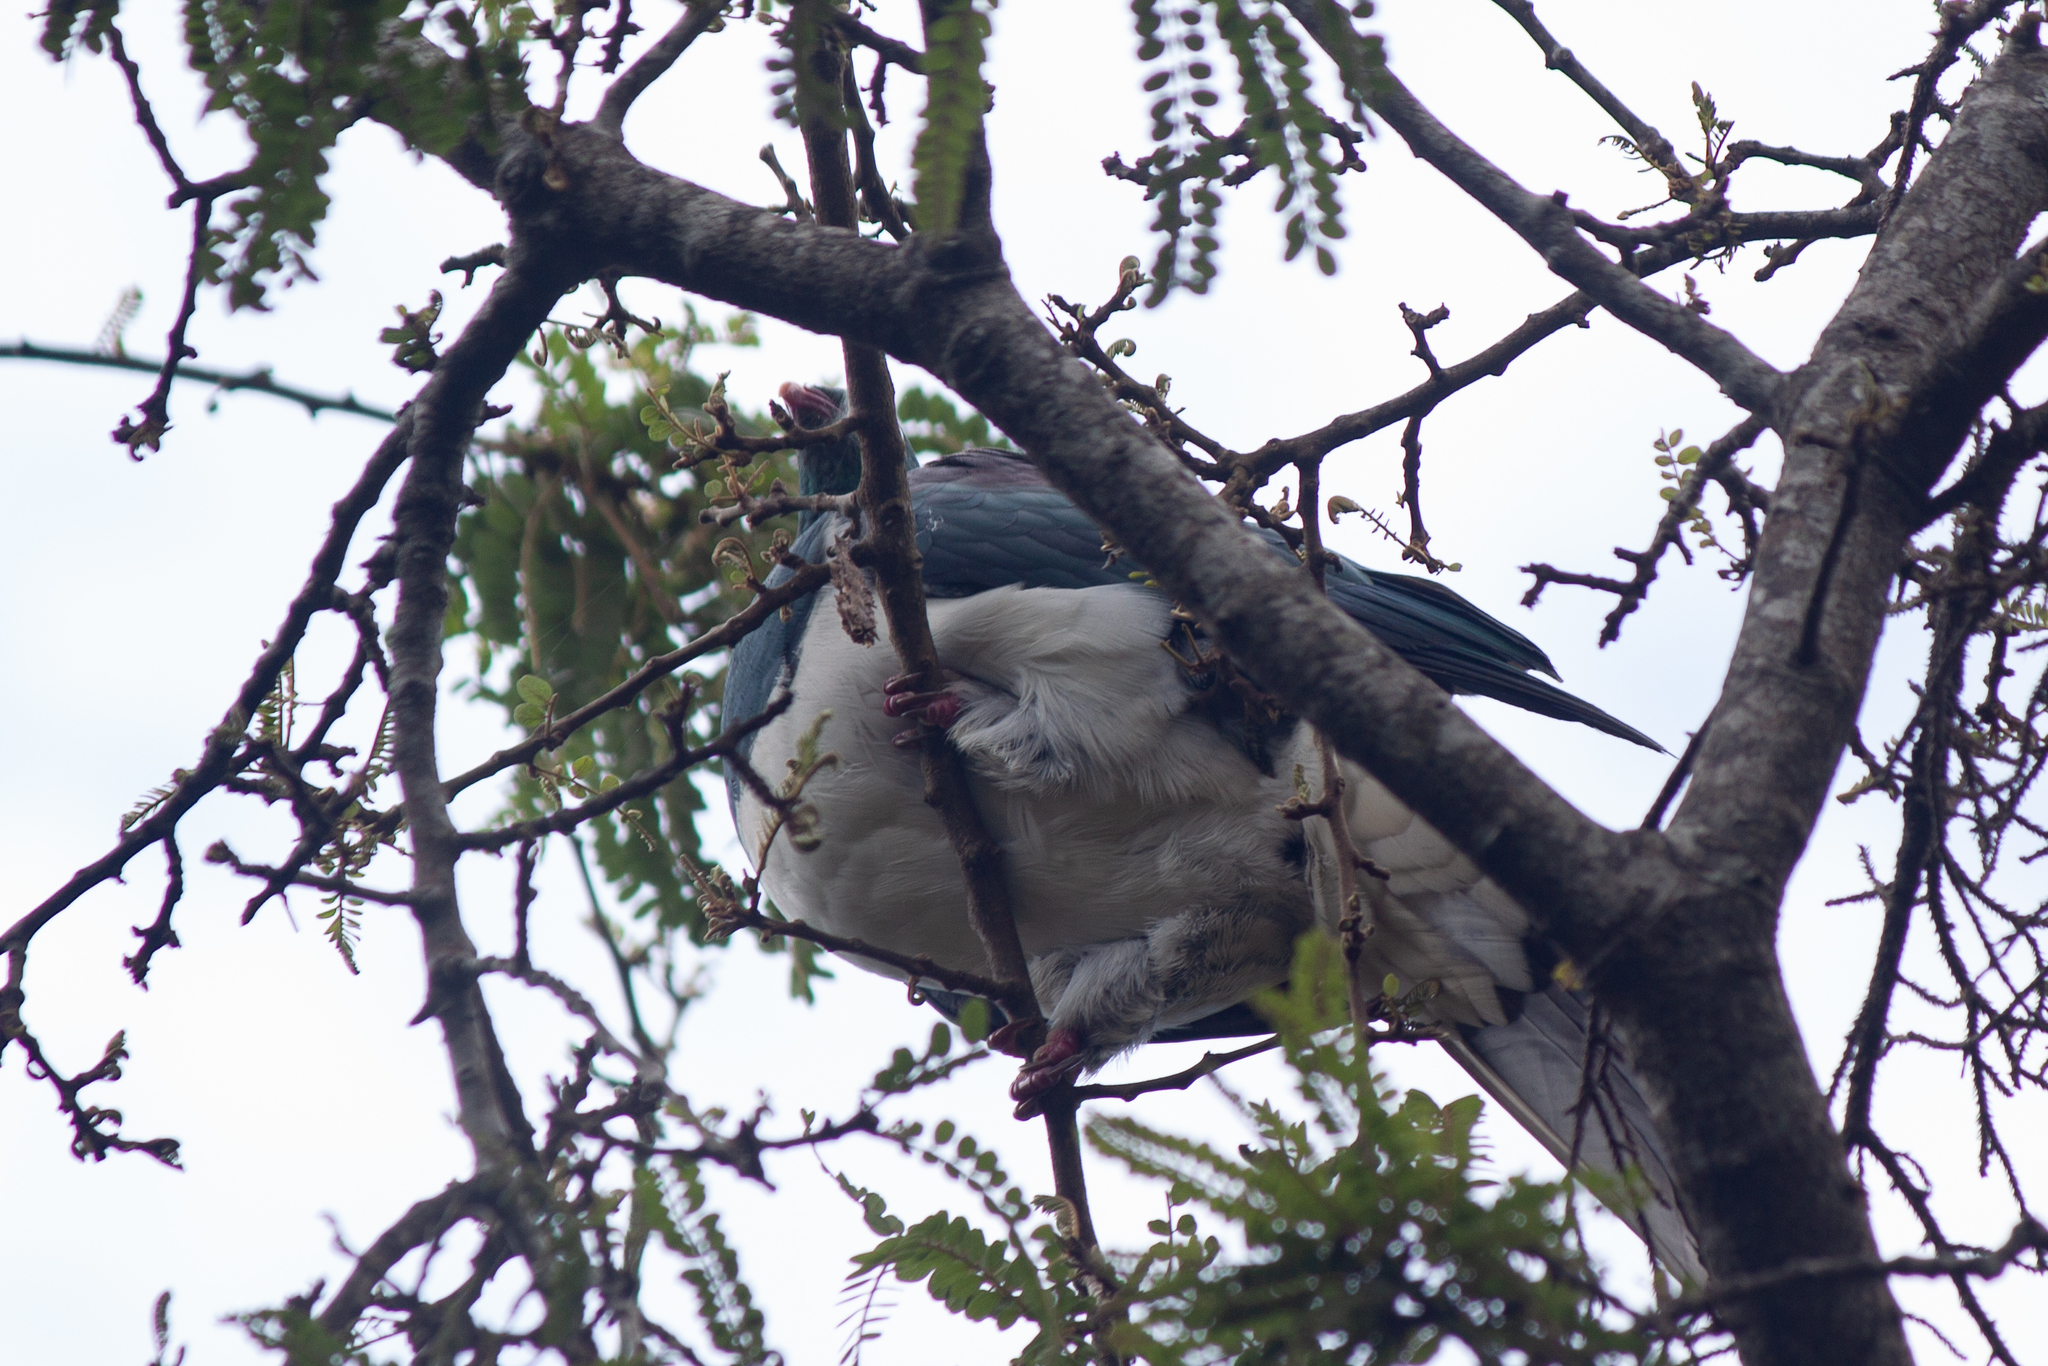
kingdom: Animalia
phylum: Chordata
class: Aves
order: Columbiformes
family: Columbidae
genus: Hemiphaga
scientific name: Hemiphaga novaeseelandiae
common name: New zealand pigeon
